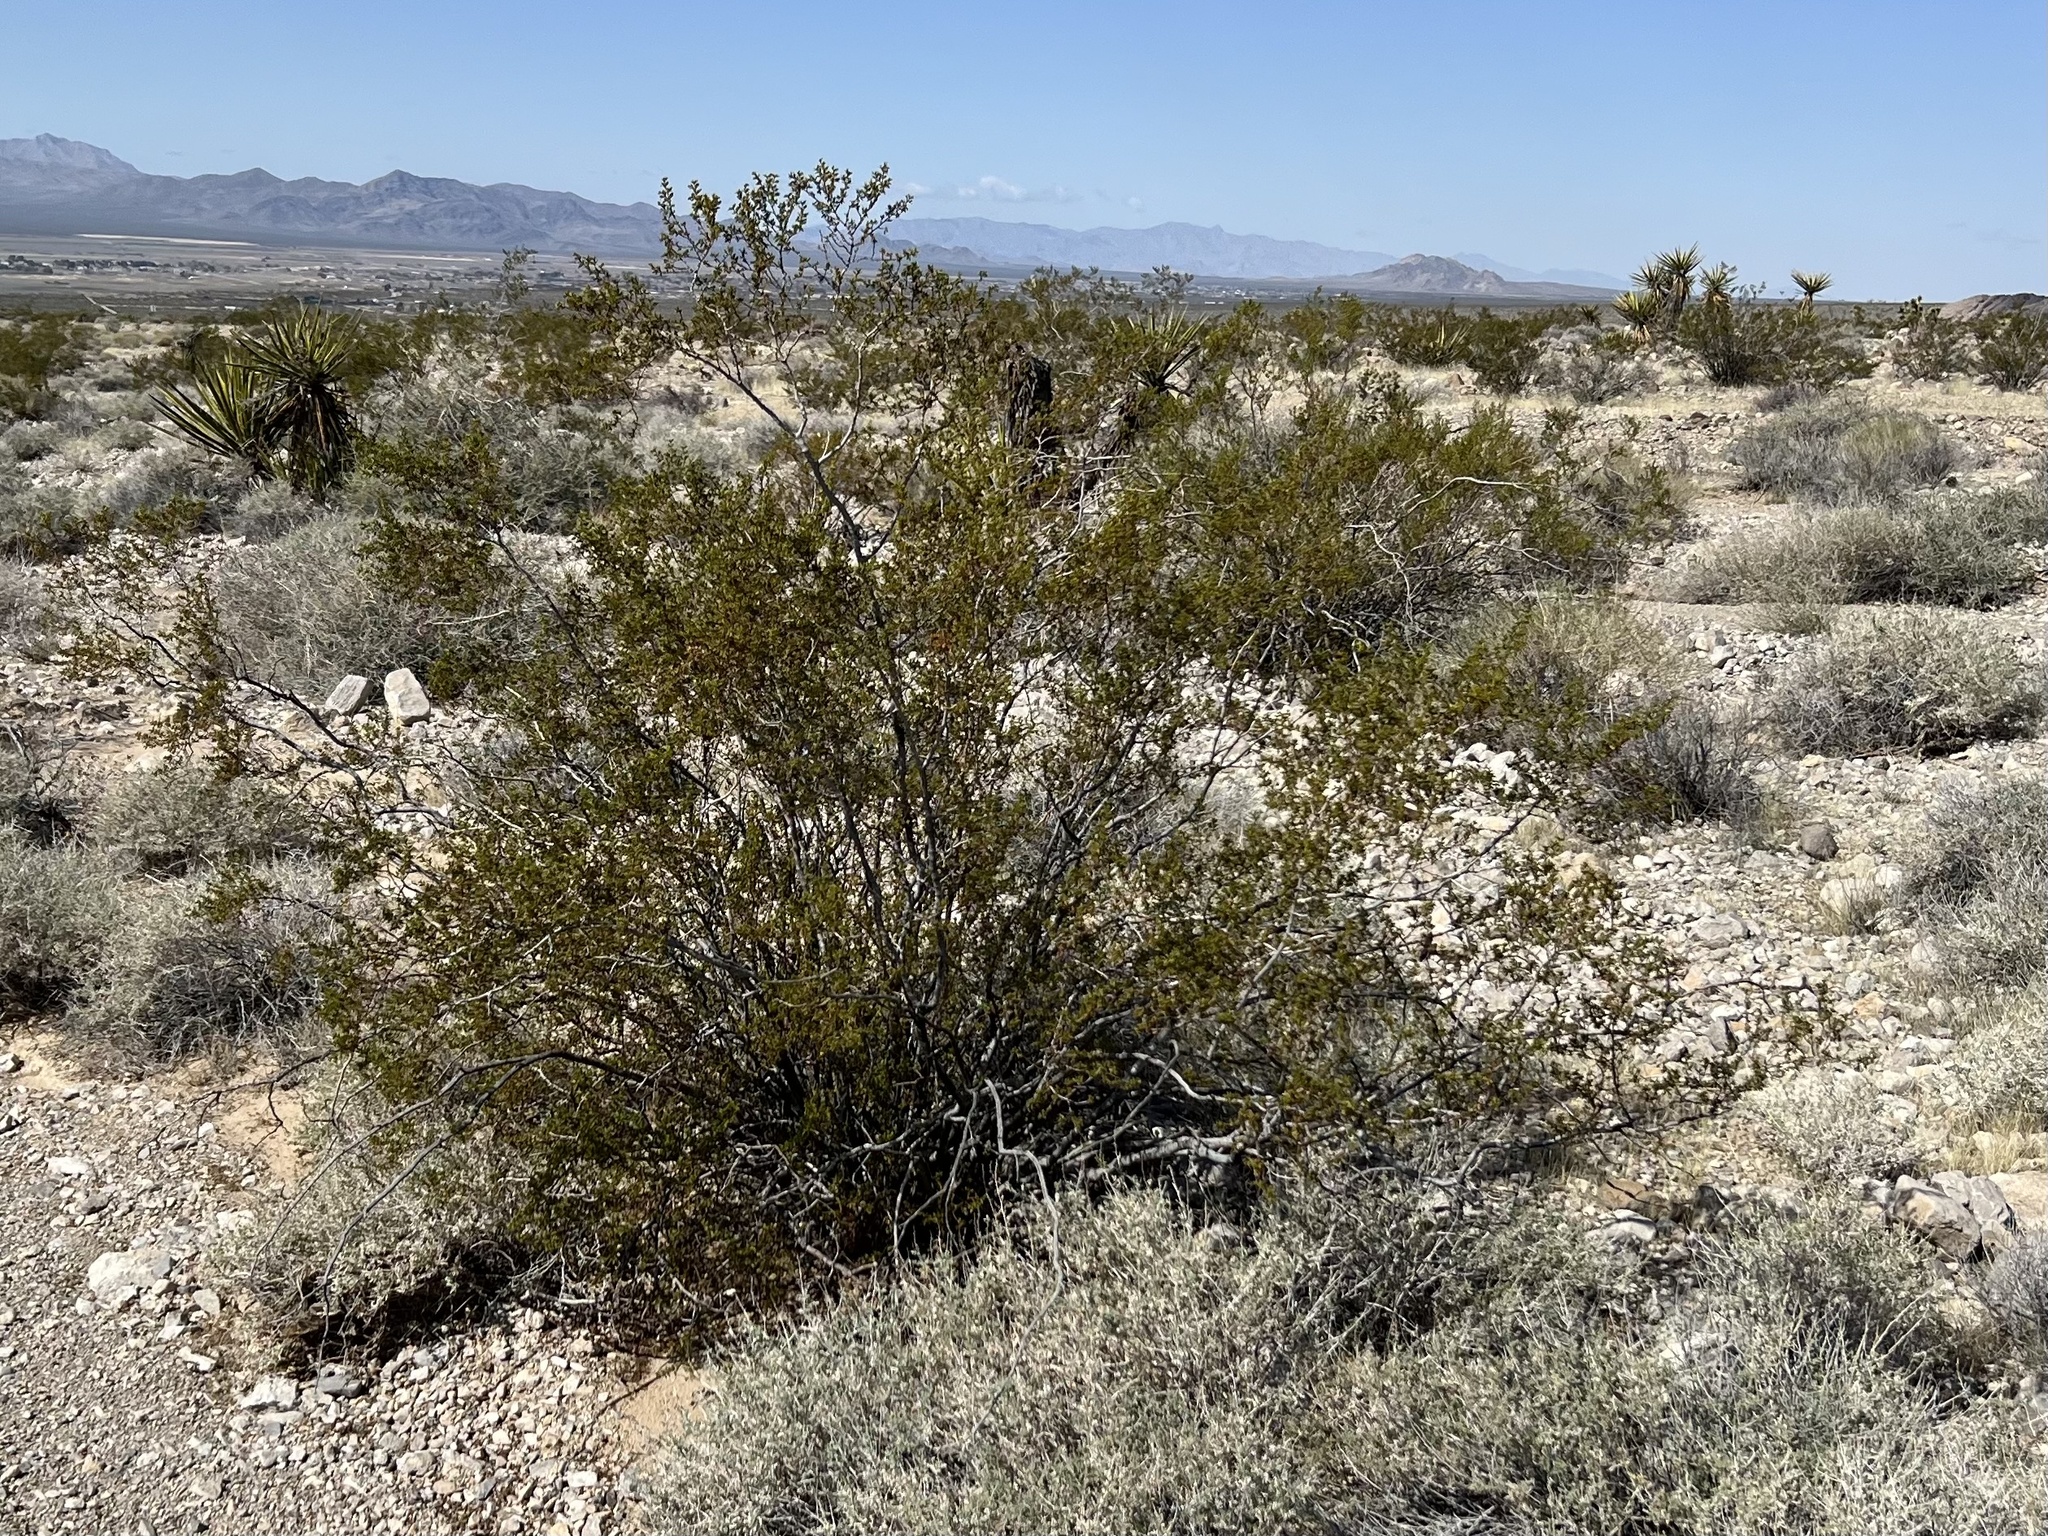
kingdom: Plantae
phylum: Tracheophyta
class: Magnoliopsida
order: Zygophyllales
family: Zygophyllaceae
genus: Larrea
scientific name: Larrea tridentata
